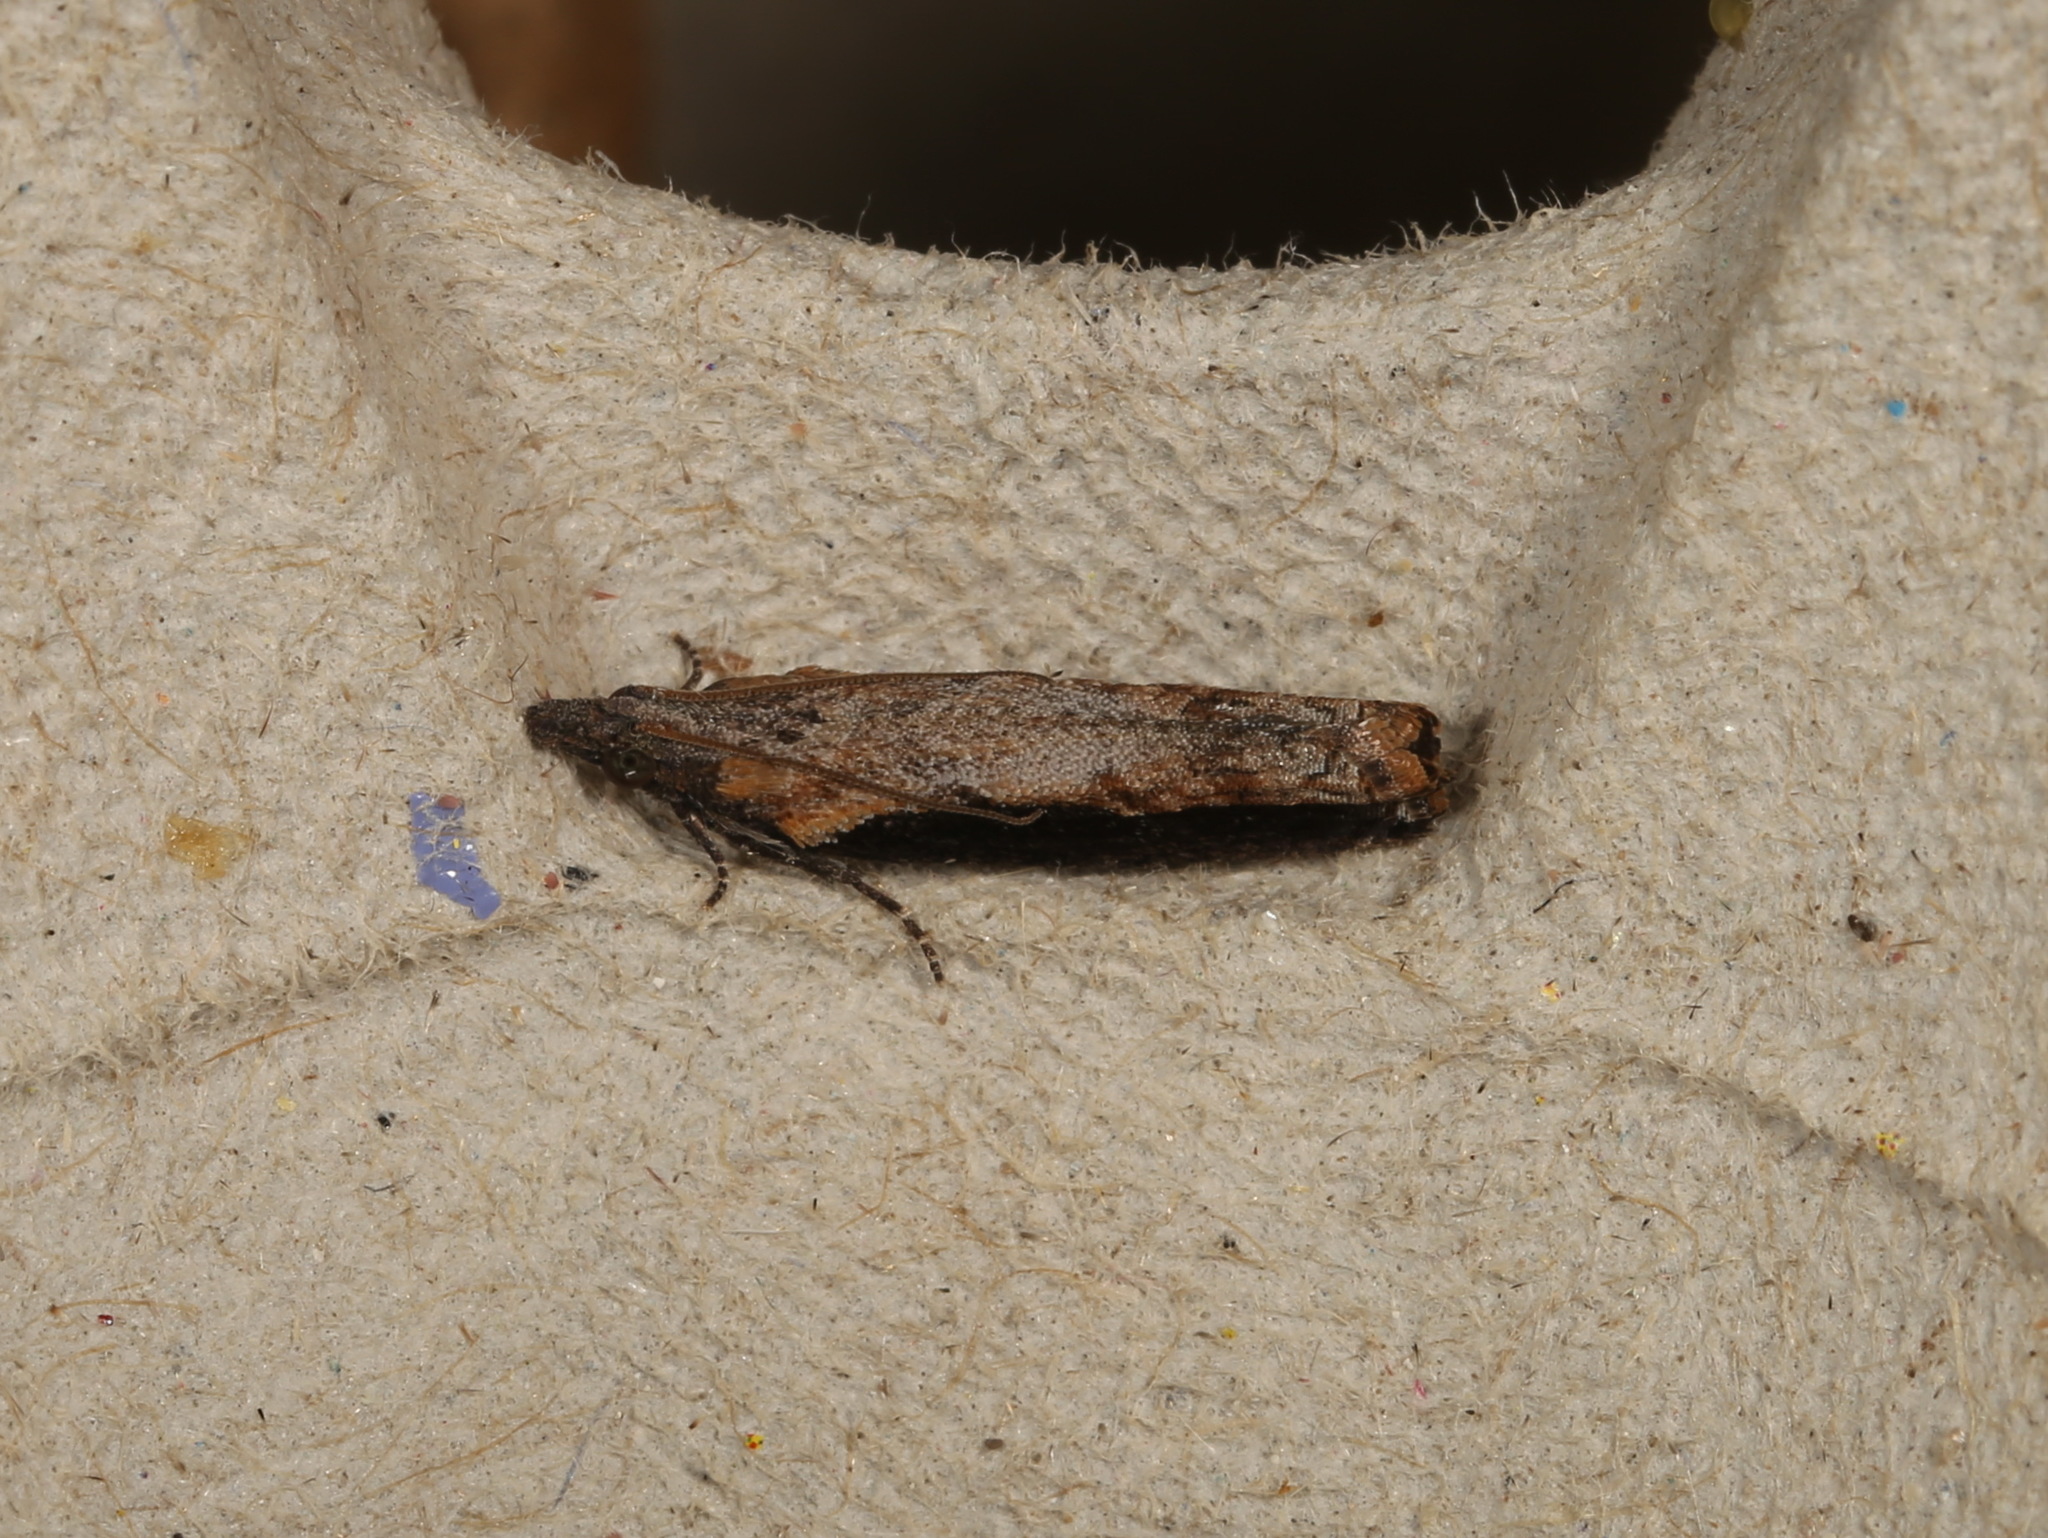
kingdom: Animalia
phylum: Arthropoda
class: Insecta
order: Lepidoptera
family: Tortricidae
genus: Strepsicrates
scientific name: Strepsicrates infensa
